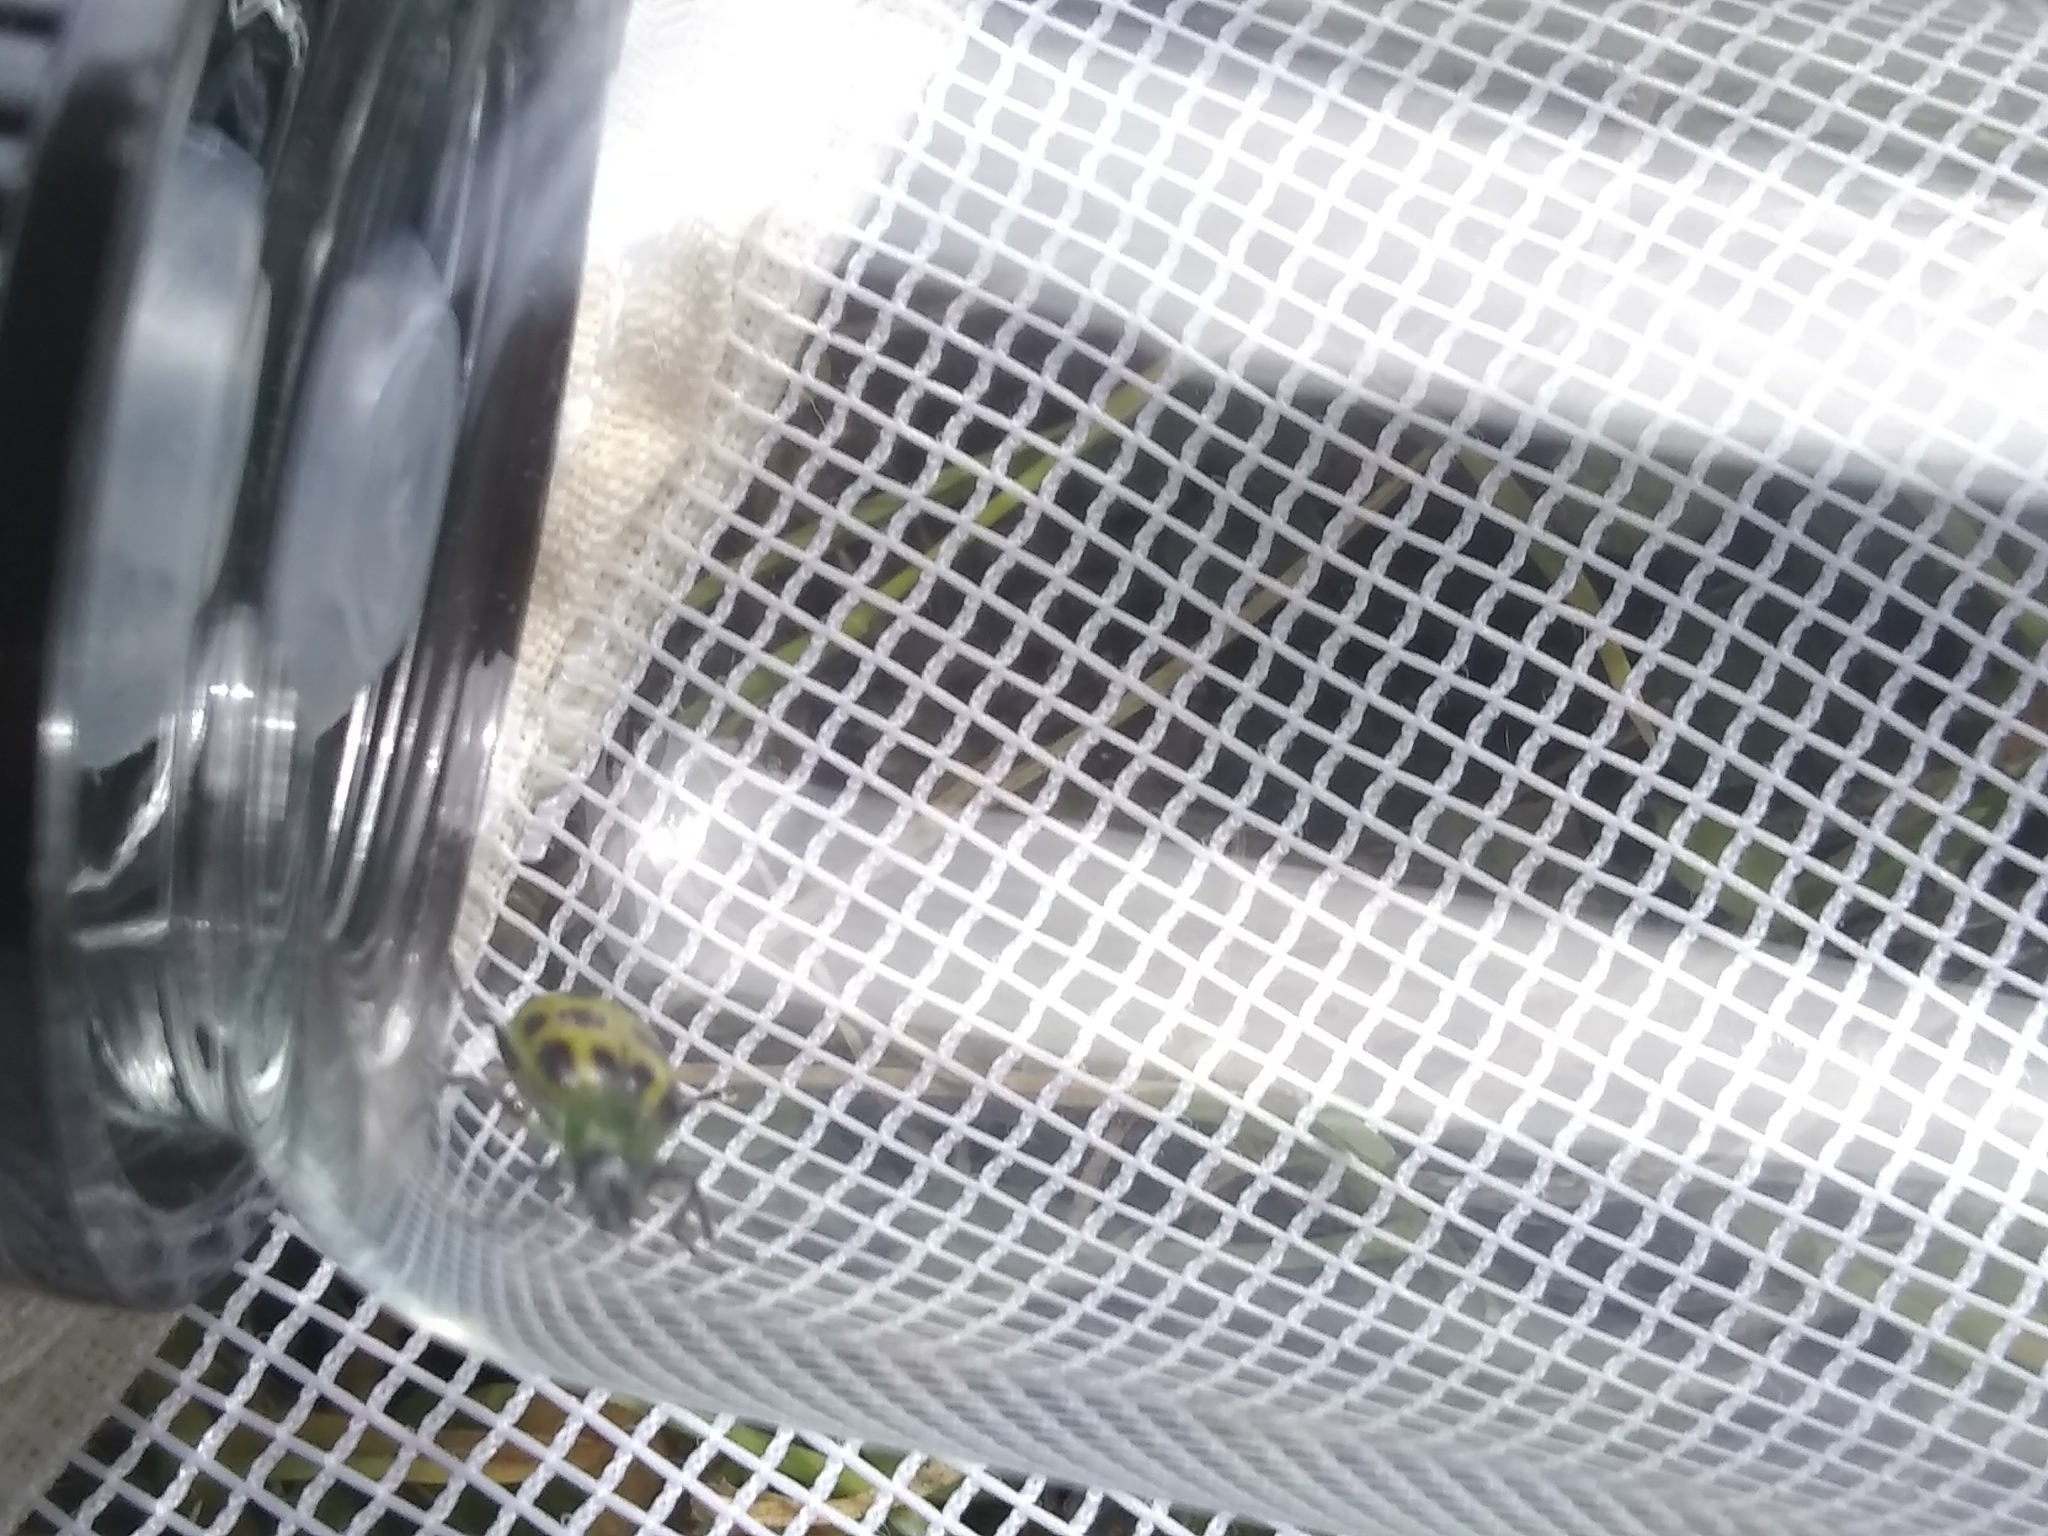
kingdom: Animalia
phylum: Arthropoda
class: Insecta
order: Coleoptera
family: Chrysomelidae
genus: Diabrotica
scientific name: Diabrotica undecimpunctata
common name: Spotted cucumber beetle
